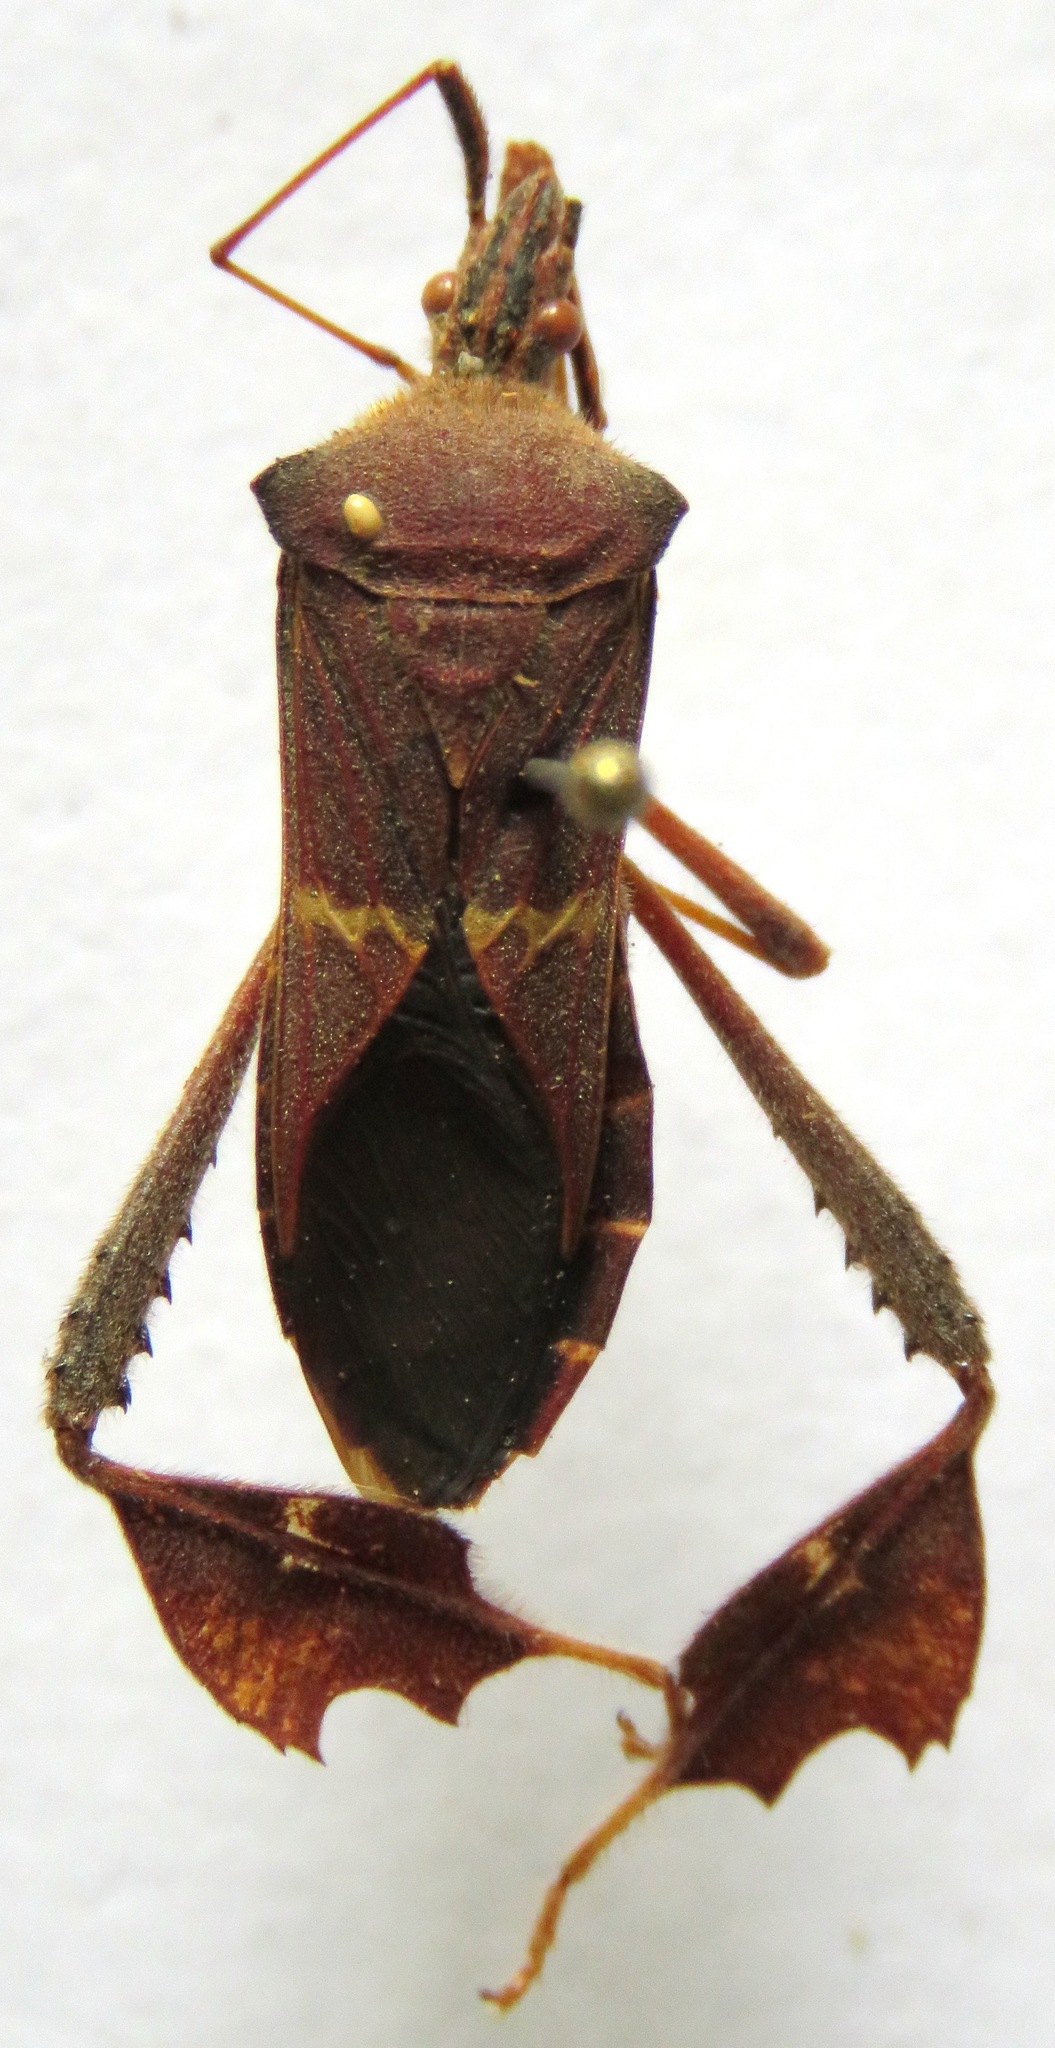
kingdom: Animalia
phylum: Arthropoda
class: Insecta
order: Hemiptera
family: Coreidae
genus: Leptoglossus
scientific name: Leptoglossus concolor
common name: Leaf-footed bug
